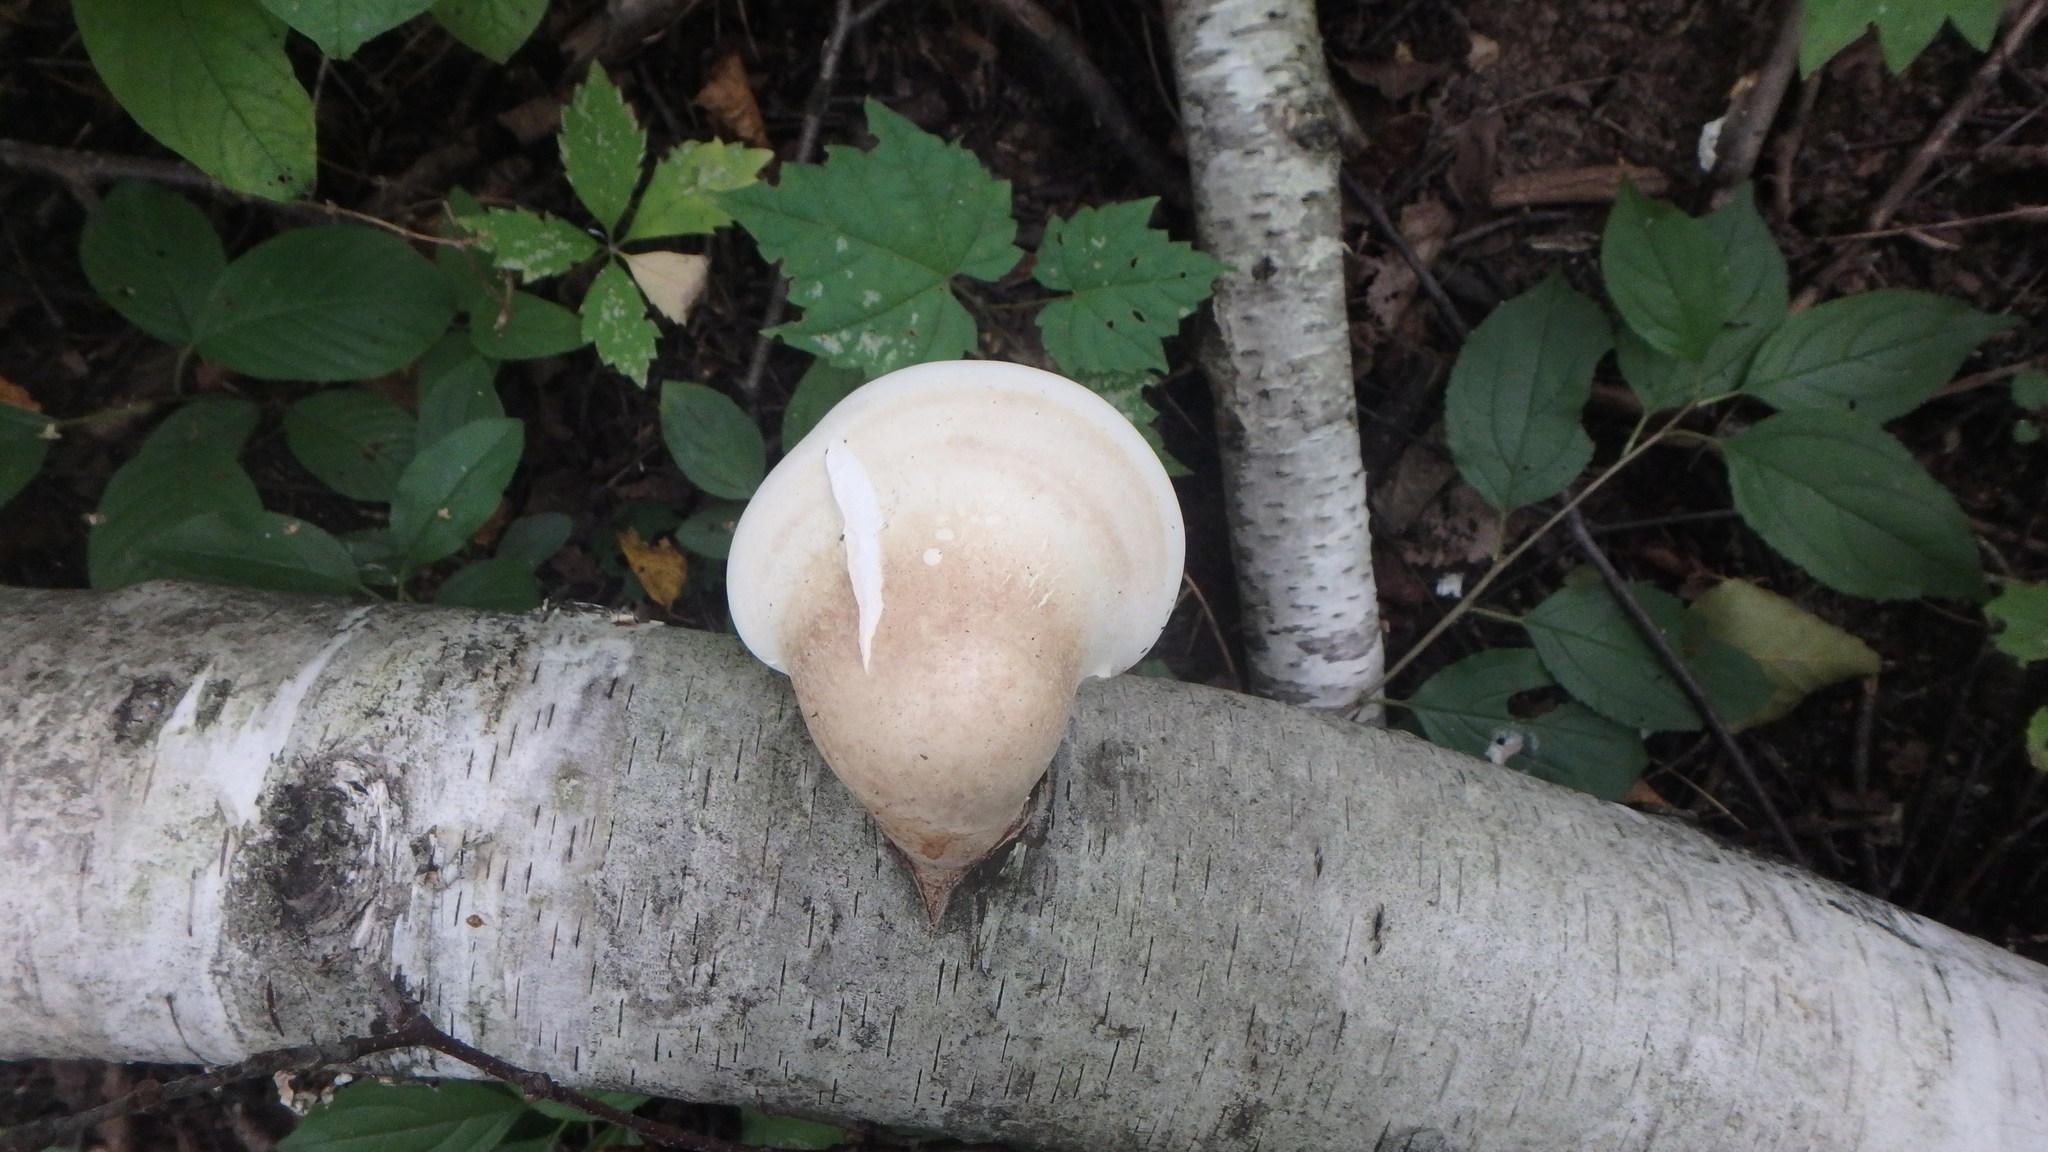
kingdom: Fungi
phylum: Basidiomycota
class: Agaricomycetes
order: Polyporales
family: Fomitopsidaceae
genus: Fomitopsis
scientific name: Fomitopsis betulina
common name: Birch polypore
